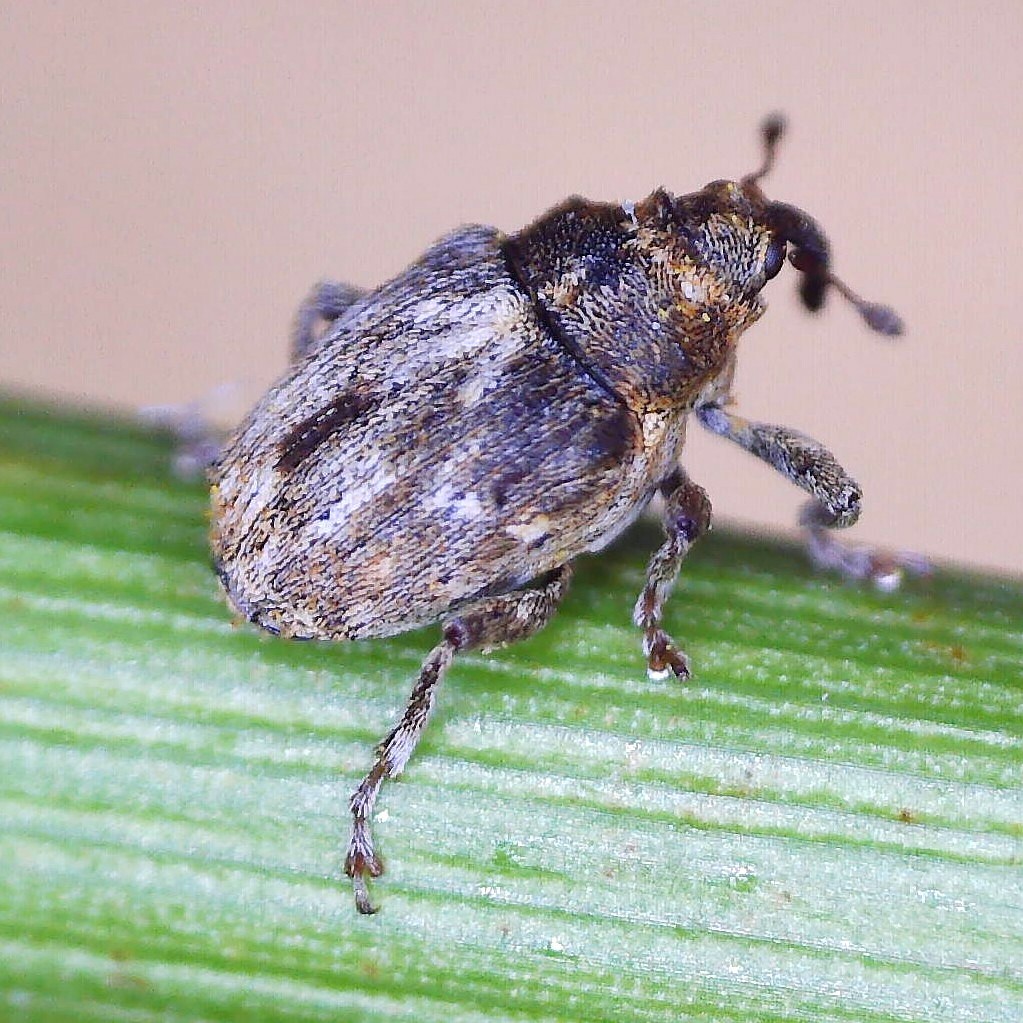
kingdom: Animalia
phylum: Arthropoda
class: Insecta
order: Coleoptera
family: Curculionidae
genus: Microplontus
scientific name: Microplontus rugulosus
